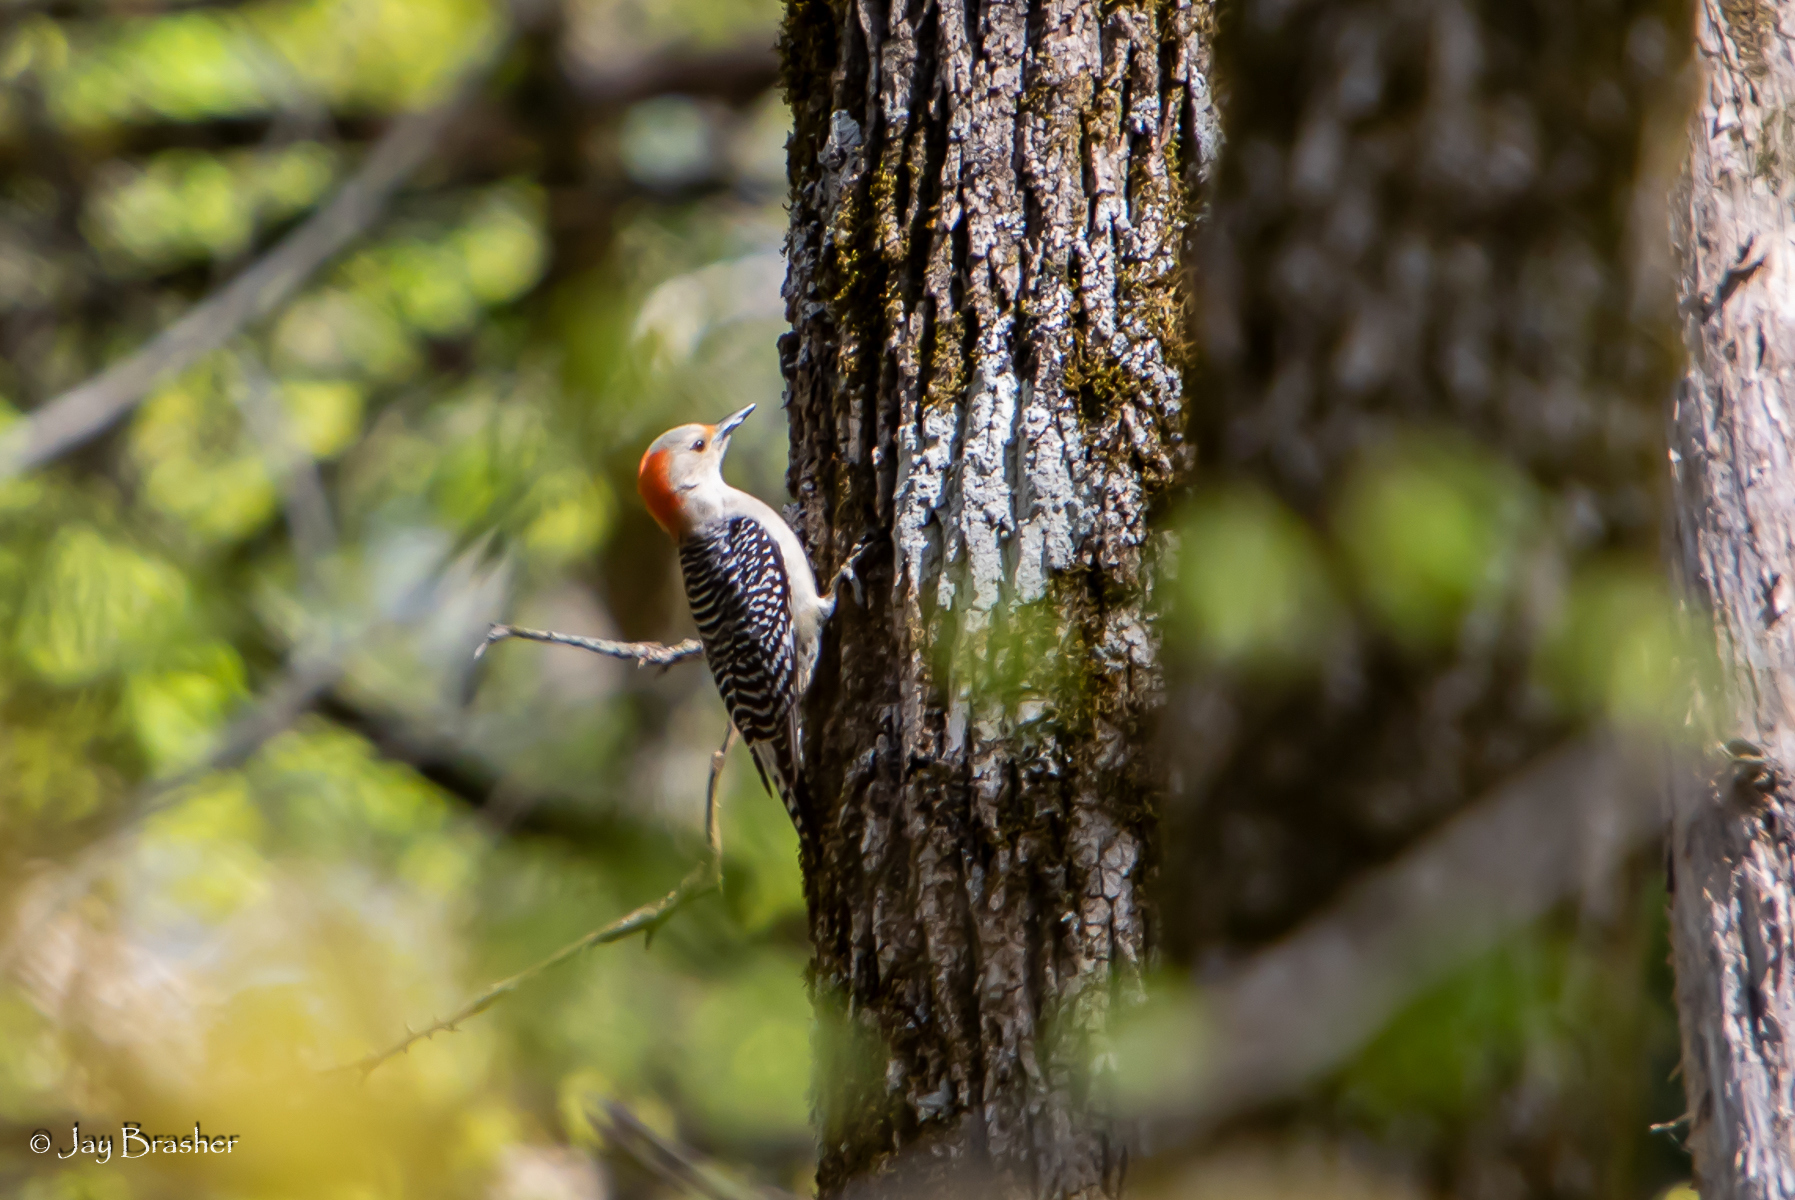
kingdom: Animalia
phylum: Chordata
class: Aves
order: Piciformes
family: Picidae
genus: Melanerpes
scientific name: Melanerpes carolinus
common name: Red-bellied woodpecker
